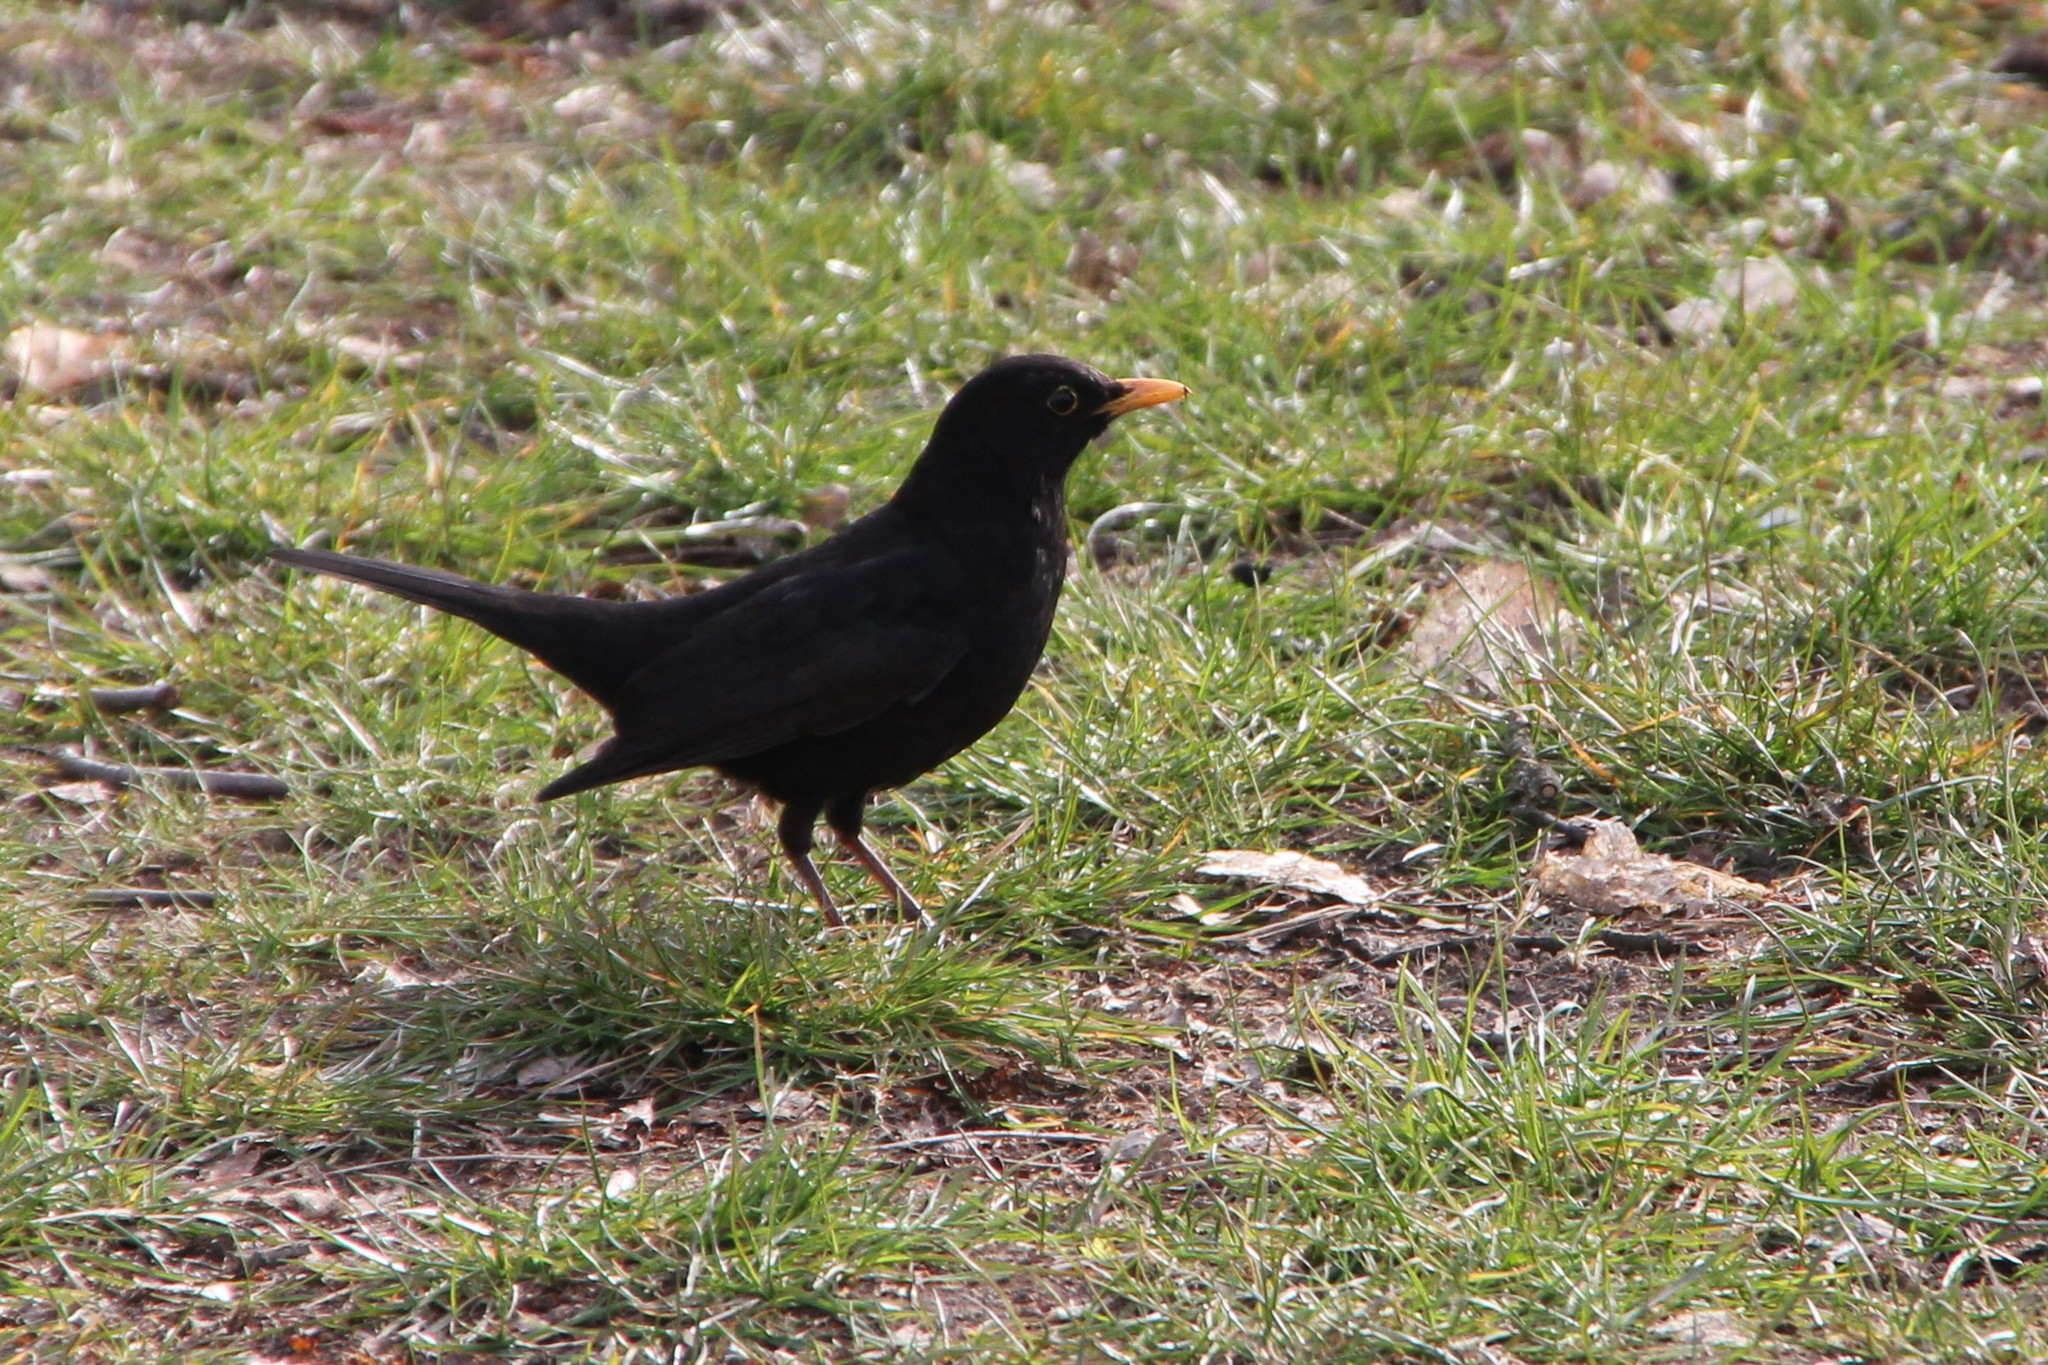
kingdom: Animalia
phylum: Chordata
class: Aves
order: Passeriformes
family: Turdidae
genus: Turdus
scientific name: Turdus merula
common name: Common blackbird
